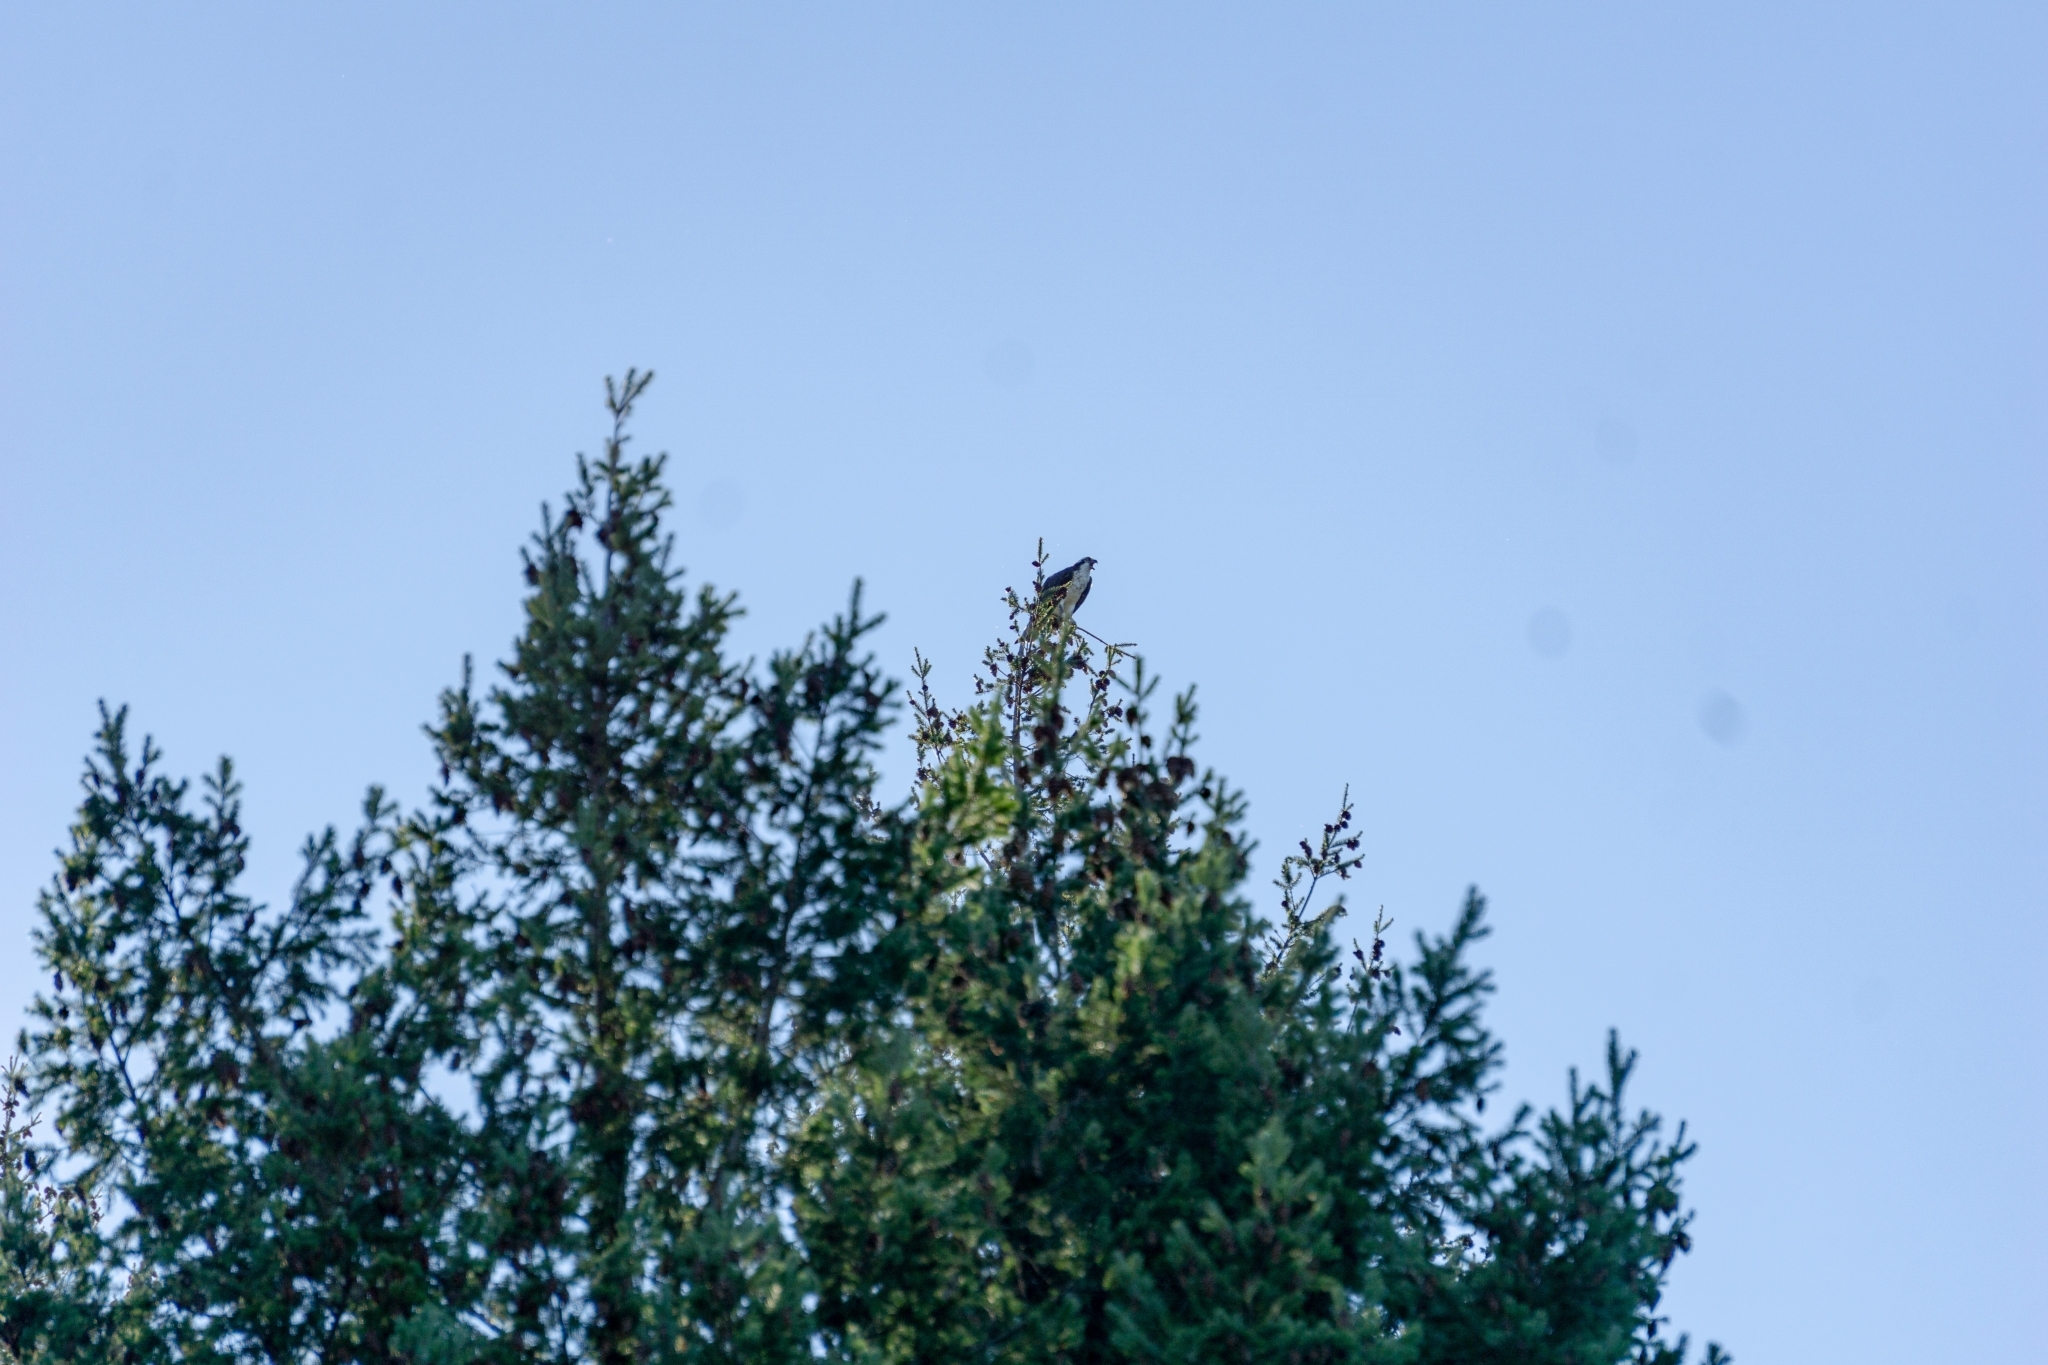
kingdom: Animalia
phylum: Chordata
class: Aves
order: Accipitriformes
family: Pandionidae
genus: Pandion
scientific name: Pandion haliaetus
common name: Osprey
